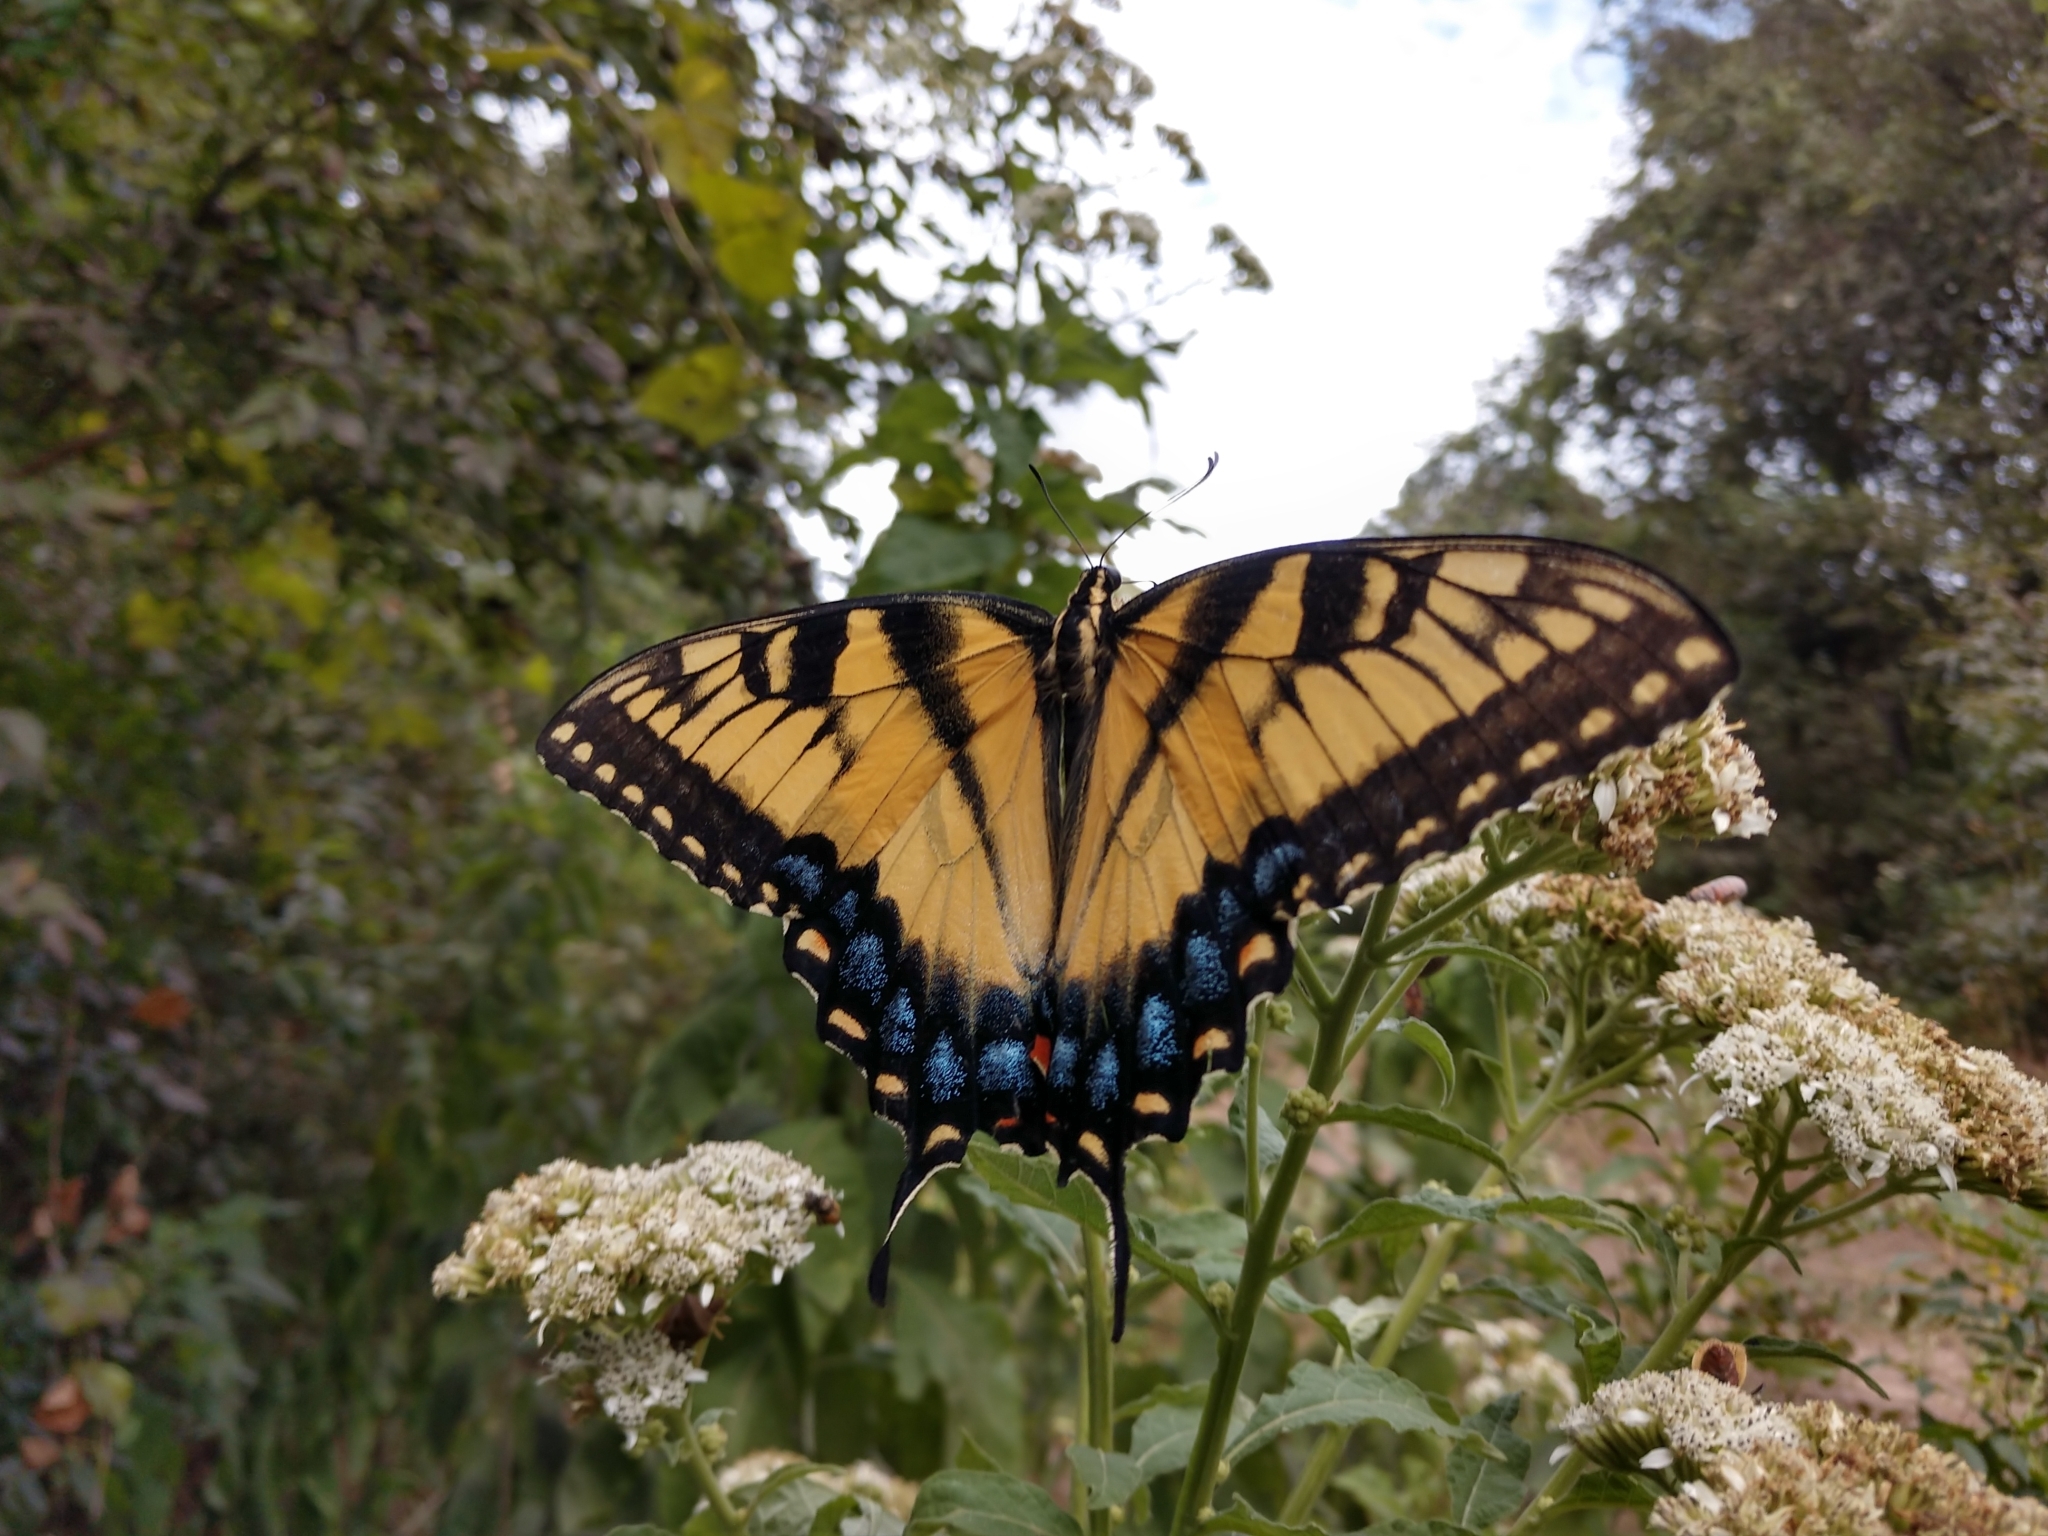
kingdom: Animalia
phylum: Arthropoda
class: Insecta
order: Lepidoptera
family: Papilionidae
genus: Papilio
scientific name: Papilio glaucus
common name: Tiger swallowtail
